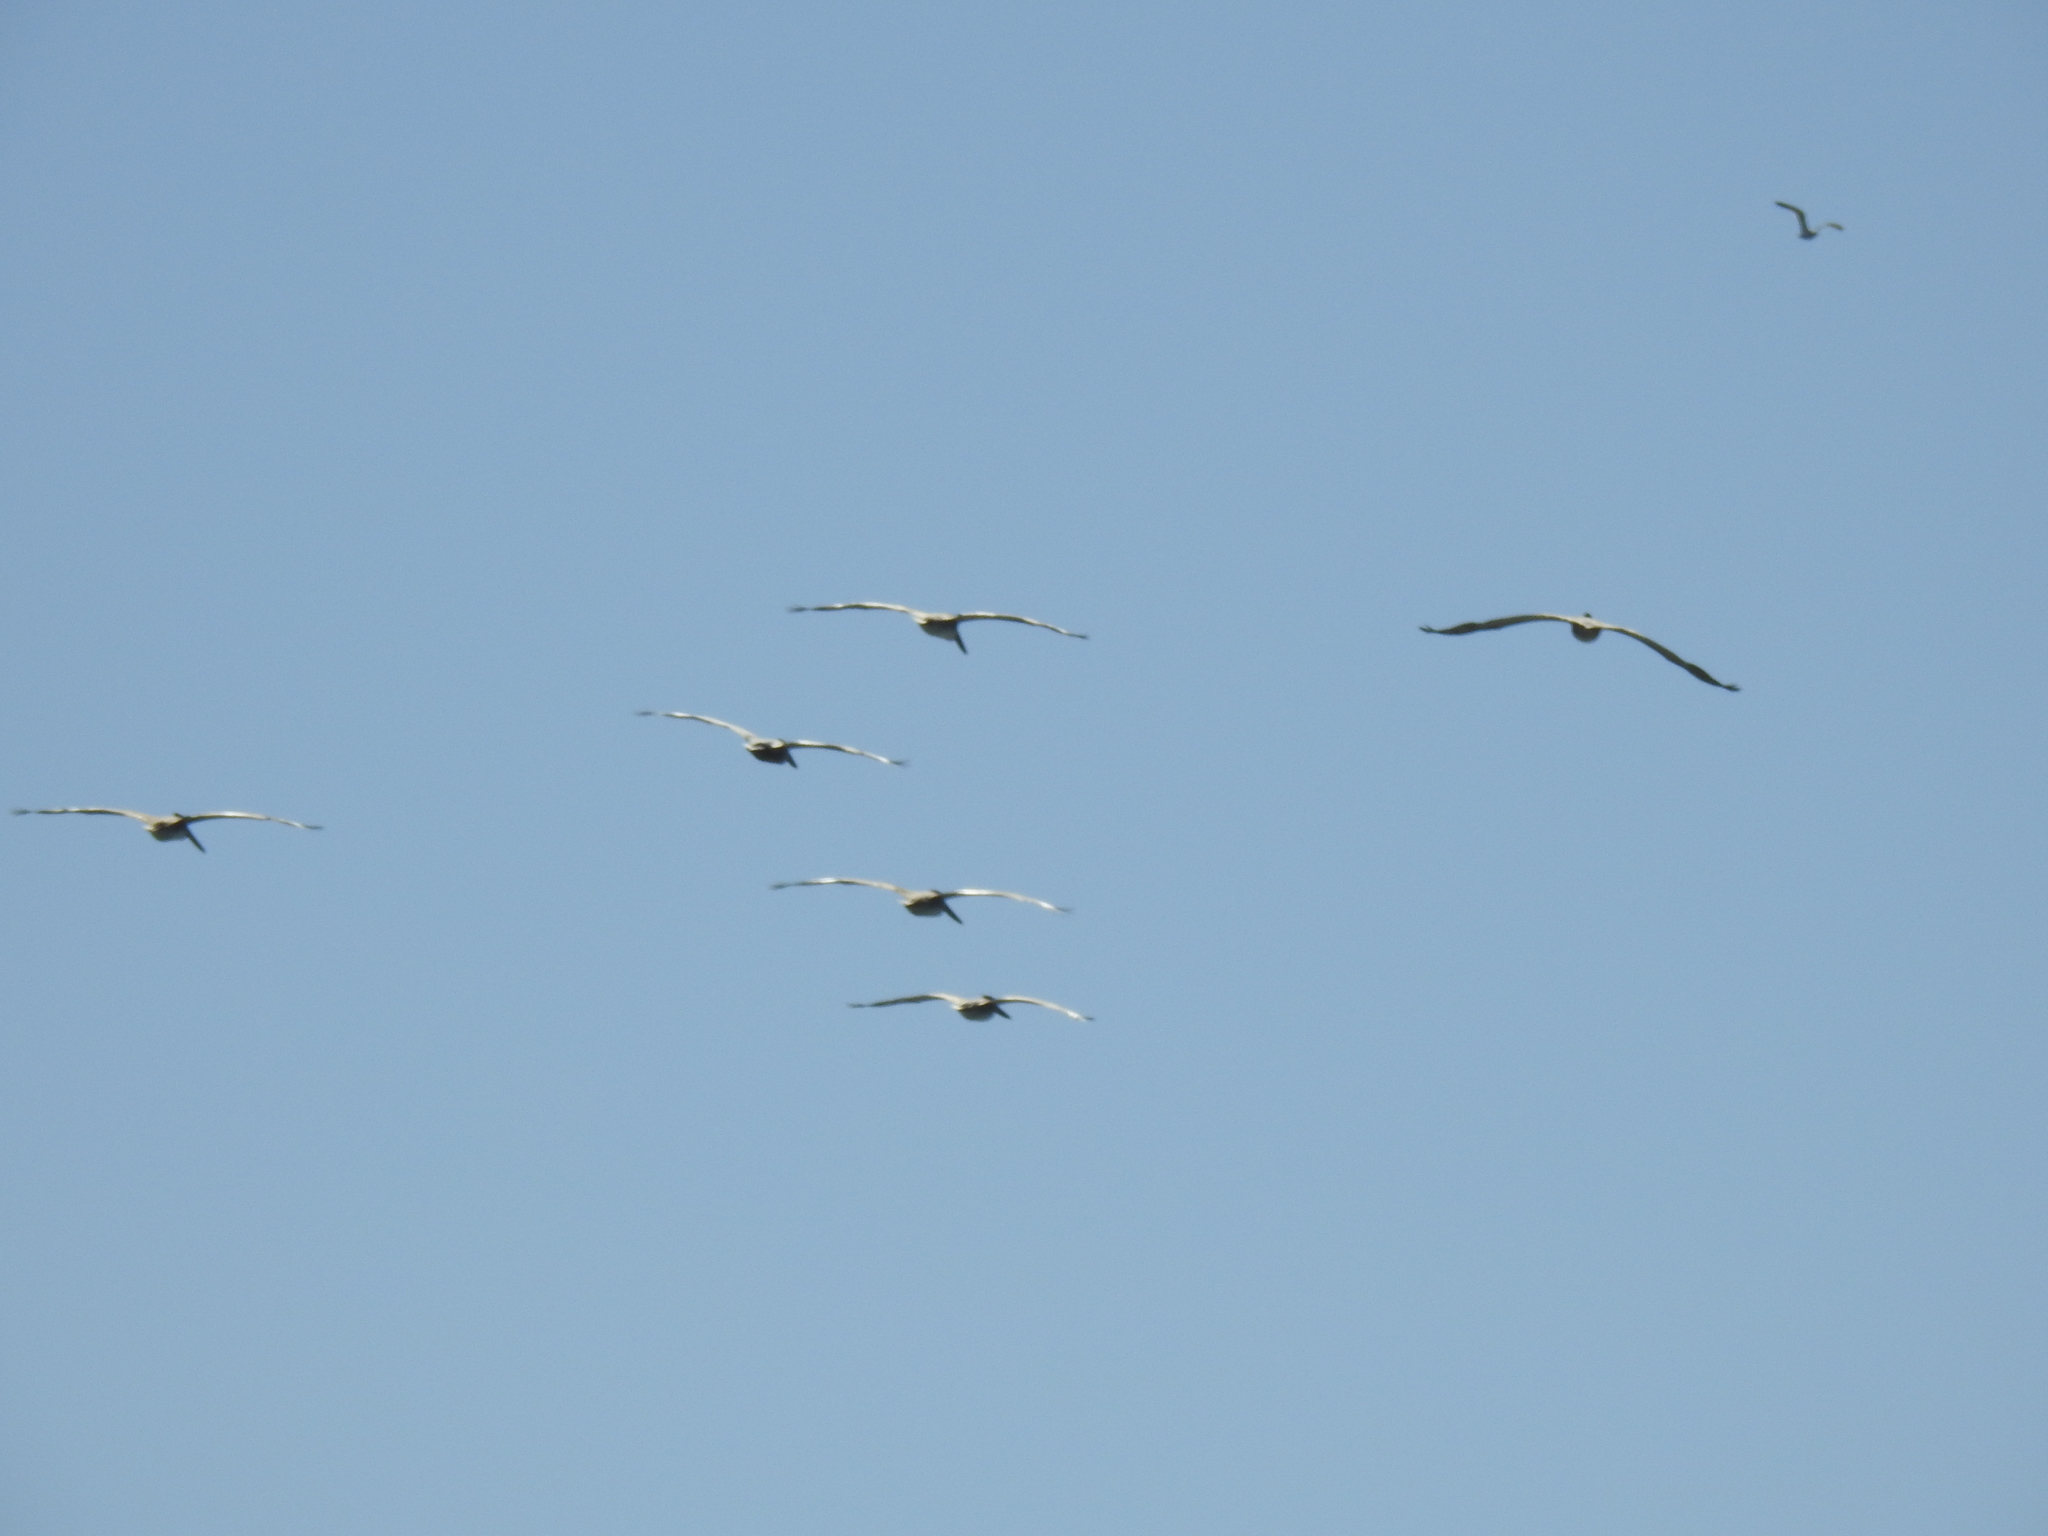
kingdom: Animalia
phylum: Chordata
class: Aves
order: Pelecaniformes
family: Pelecanidae
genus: Pelecanus
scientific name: Pelecanus occidentalis
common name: Brown pelican
